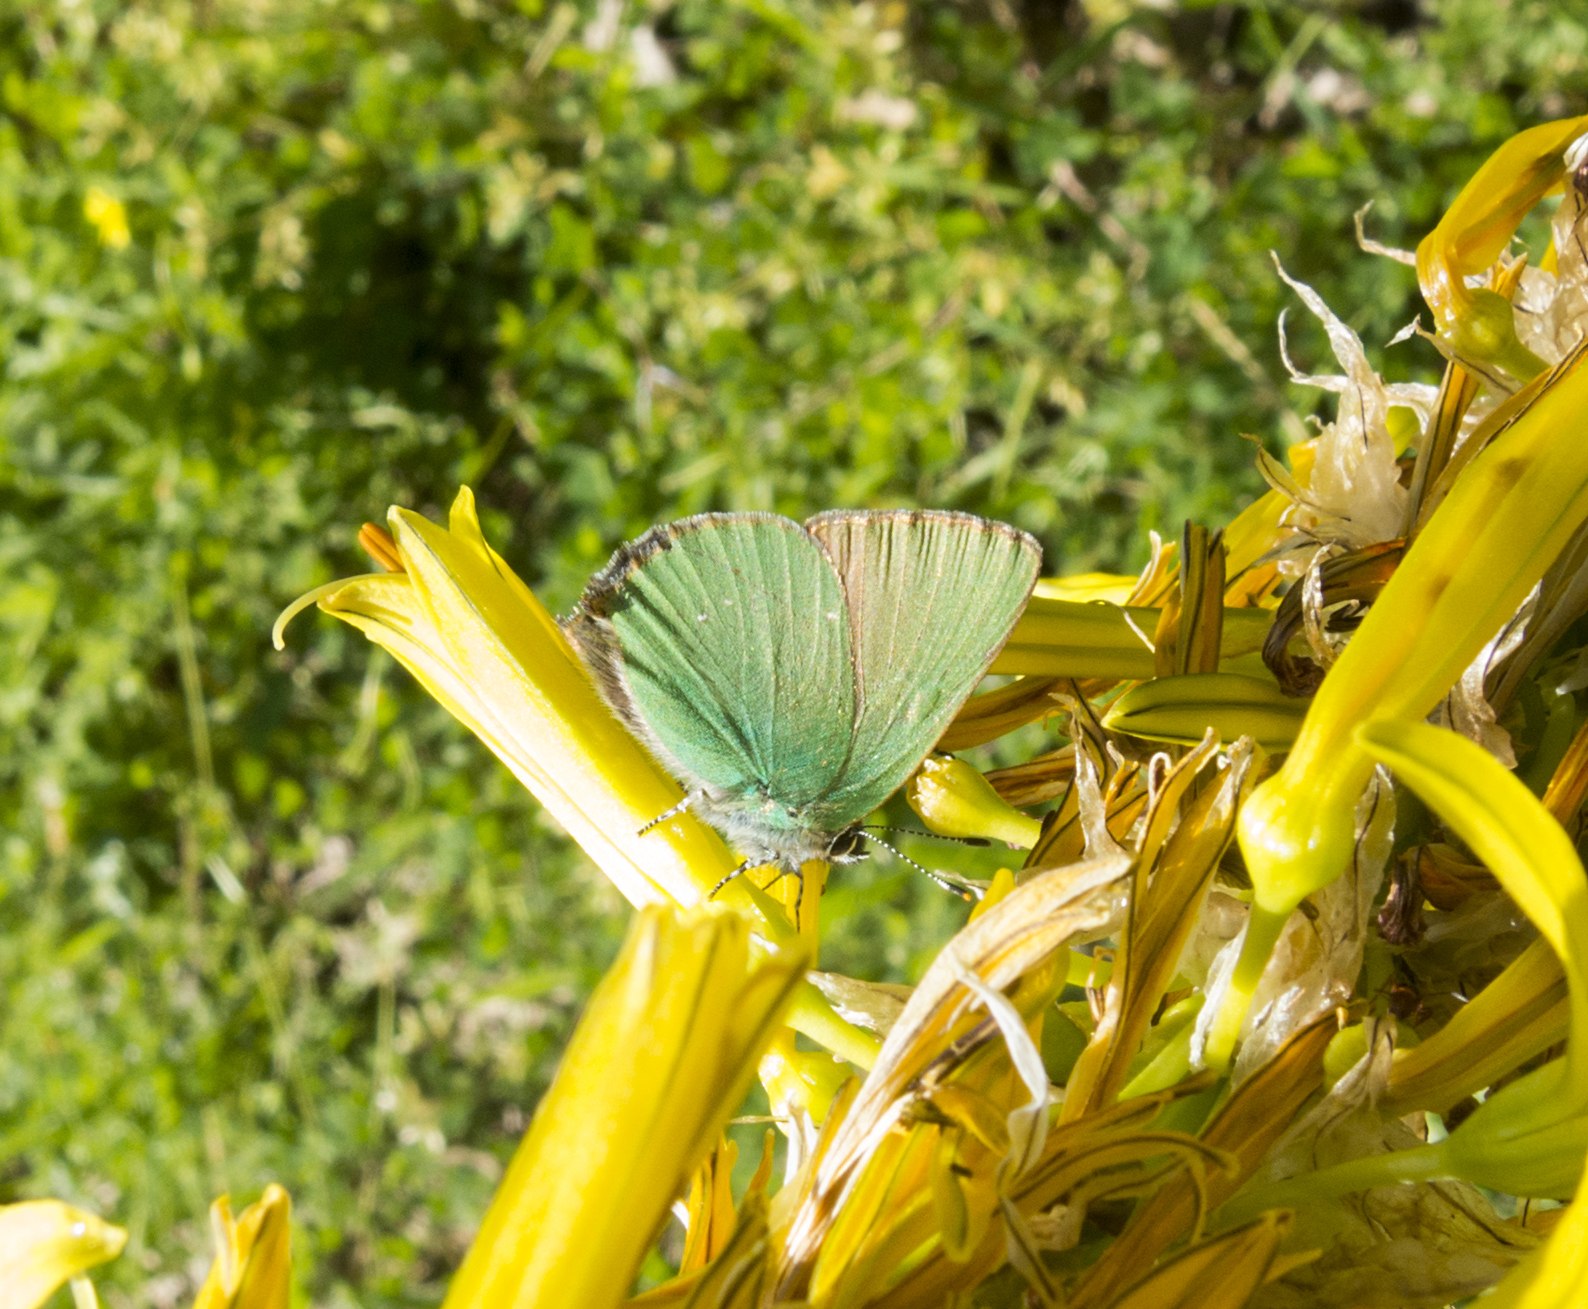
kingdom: Animalia
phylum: Arthropoda
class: Insecta
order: Lepidoptera
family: Lycaenidae
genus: Callophrys
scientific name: Callophrys rubi
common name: Green hairstreak
